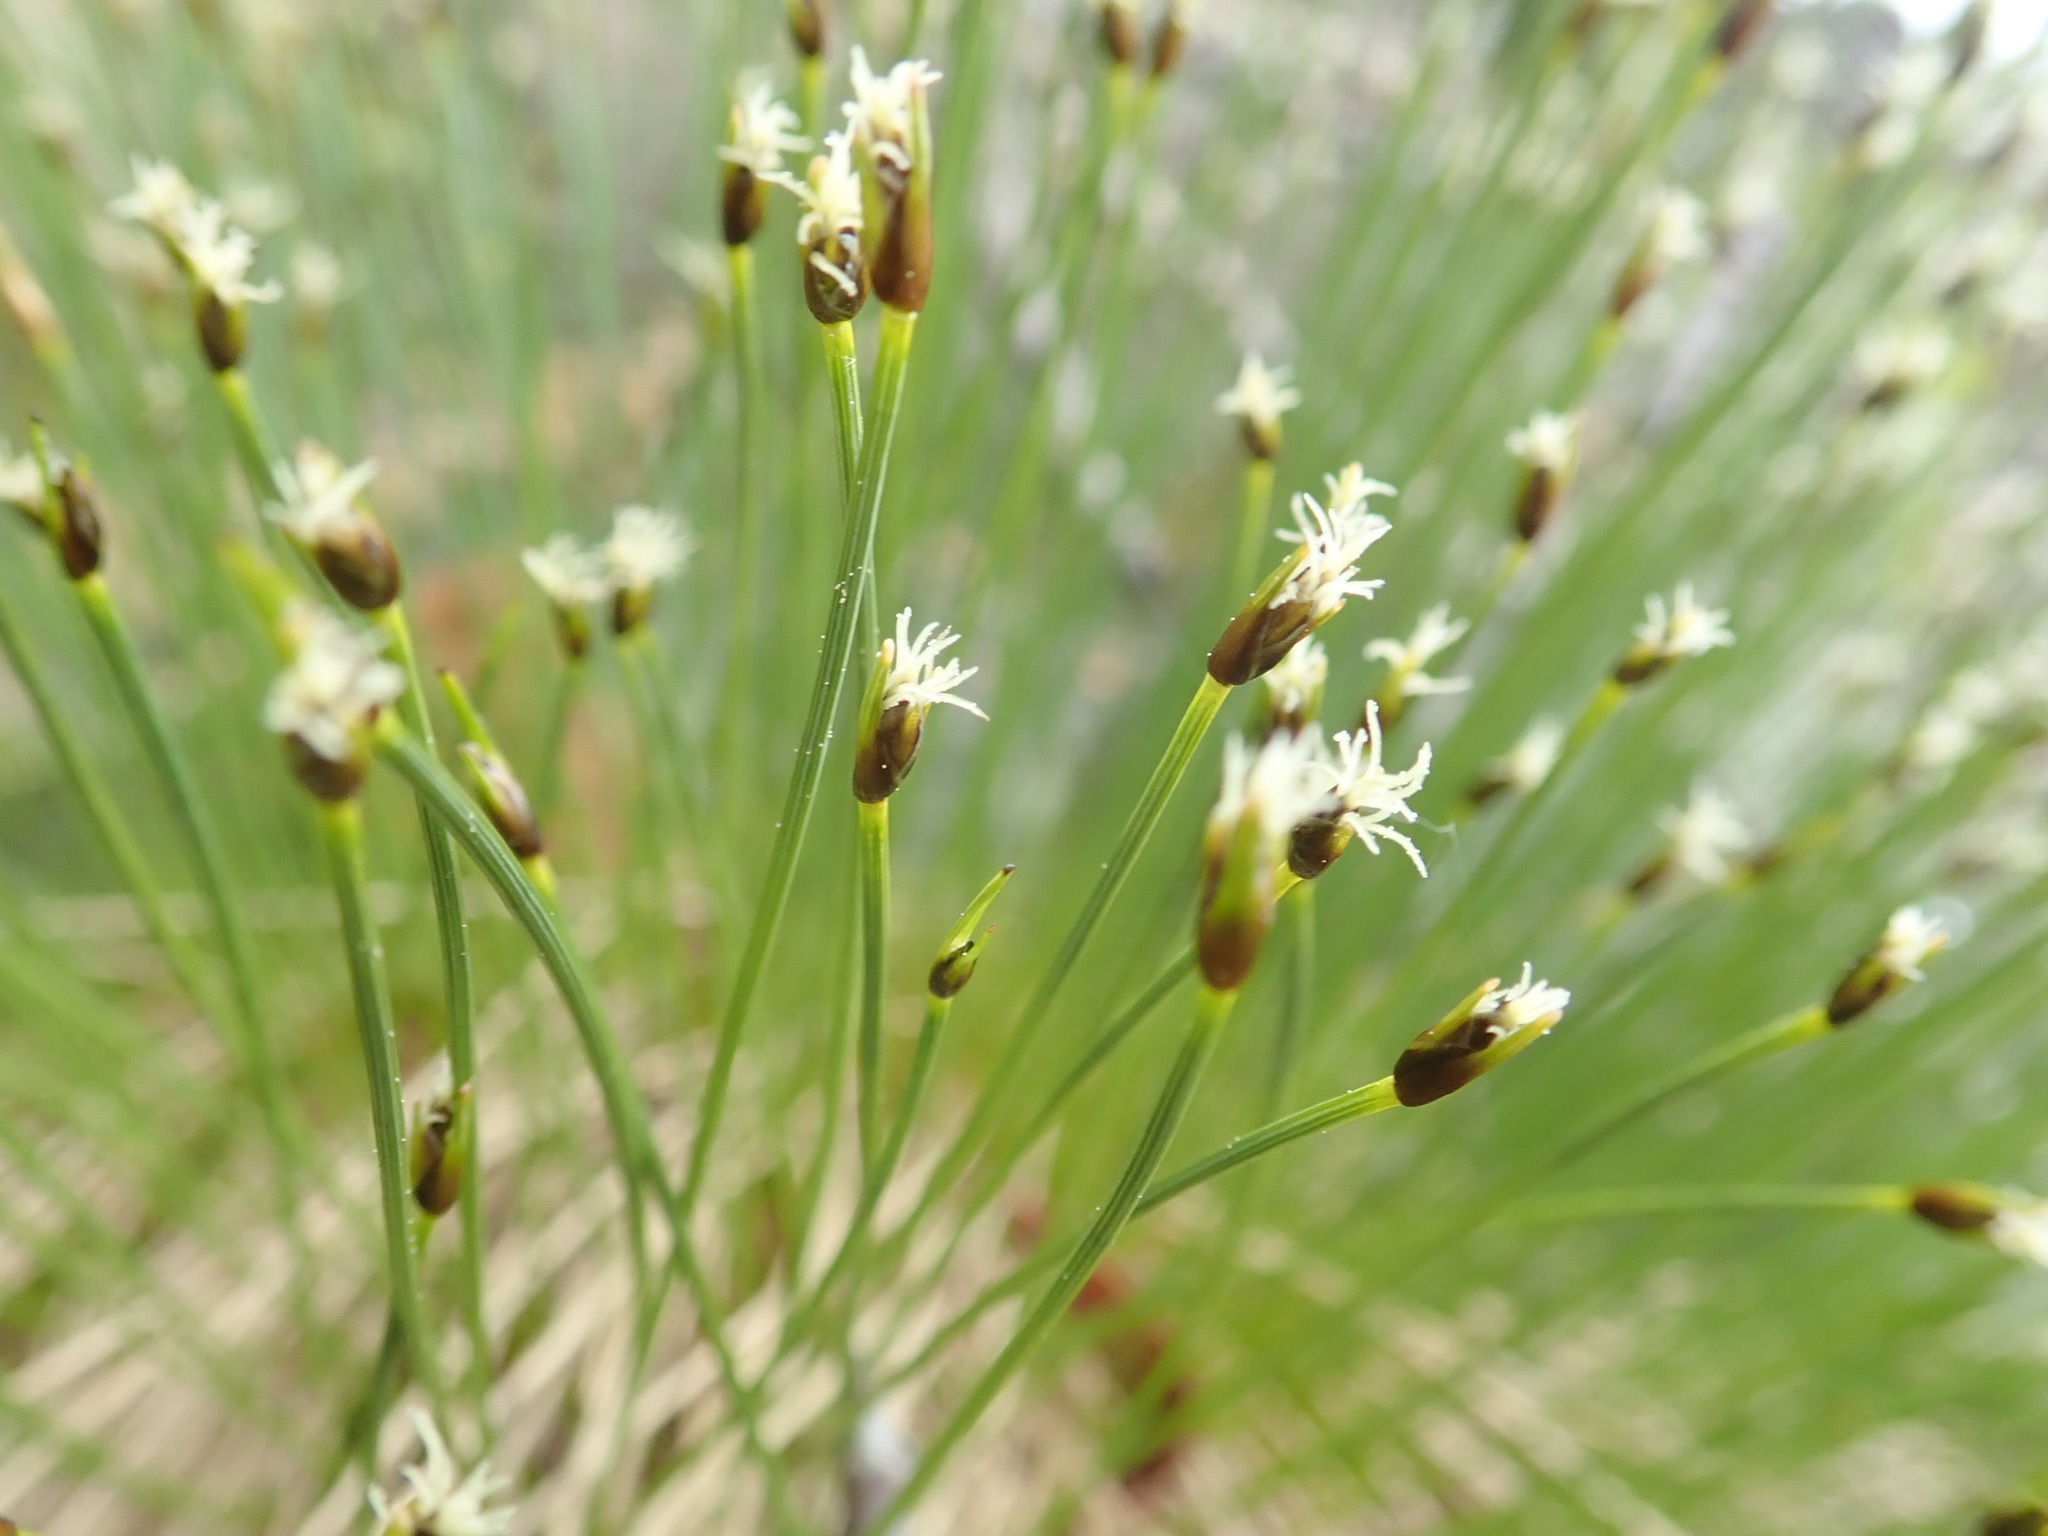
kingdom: Plantae
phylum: Tracheophyta
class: Liliopsida
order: Poales
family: Cyperaceae
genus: Trichophorum
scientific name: Trichophorum cespitosum
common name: Cespitose bulrush
